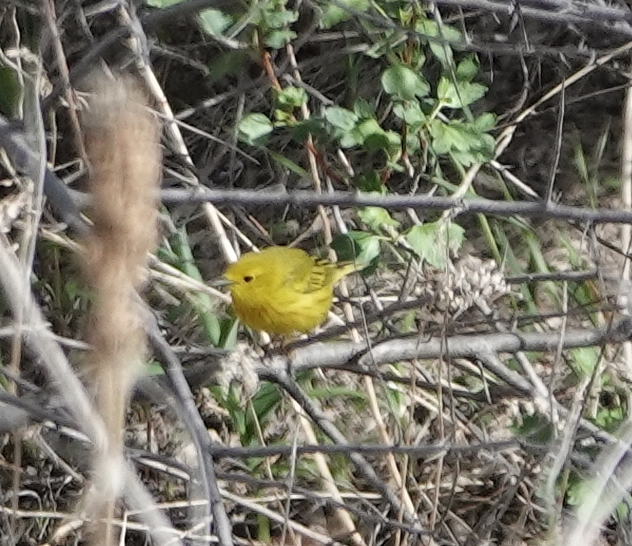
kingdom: Animalia
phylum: Chordata
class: Aves
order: Passeriformes
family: Parulidae
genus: Setophaga
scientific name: Setophaga petechia
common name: Yellow warbler
